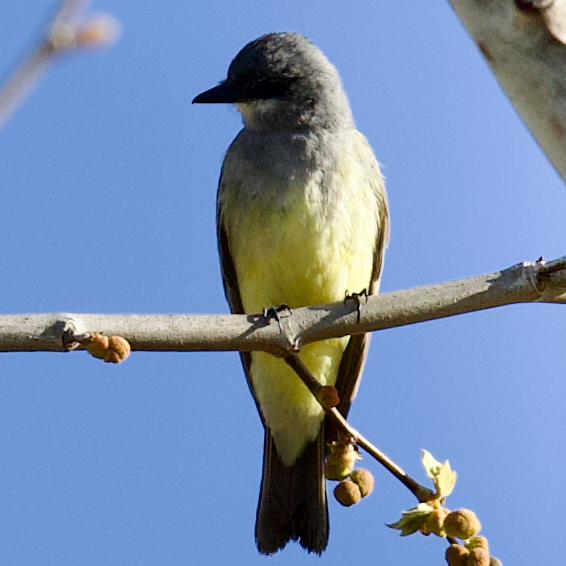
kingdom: Animalia
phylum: Chordata
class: Aves
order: Passeriformes
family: Tyrannidae
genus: Tyrannus
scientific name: Tyrannus vociferans
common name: Cassin's kingbird
